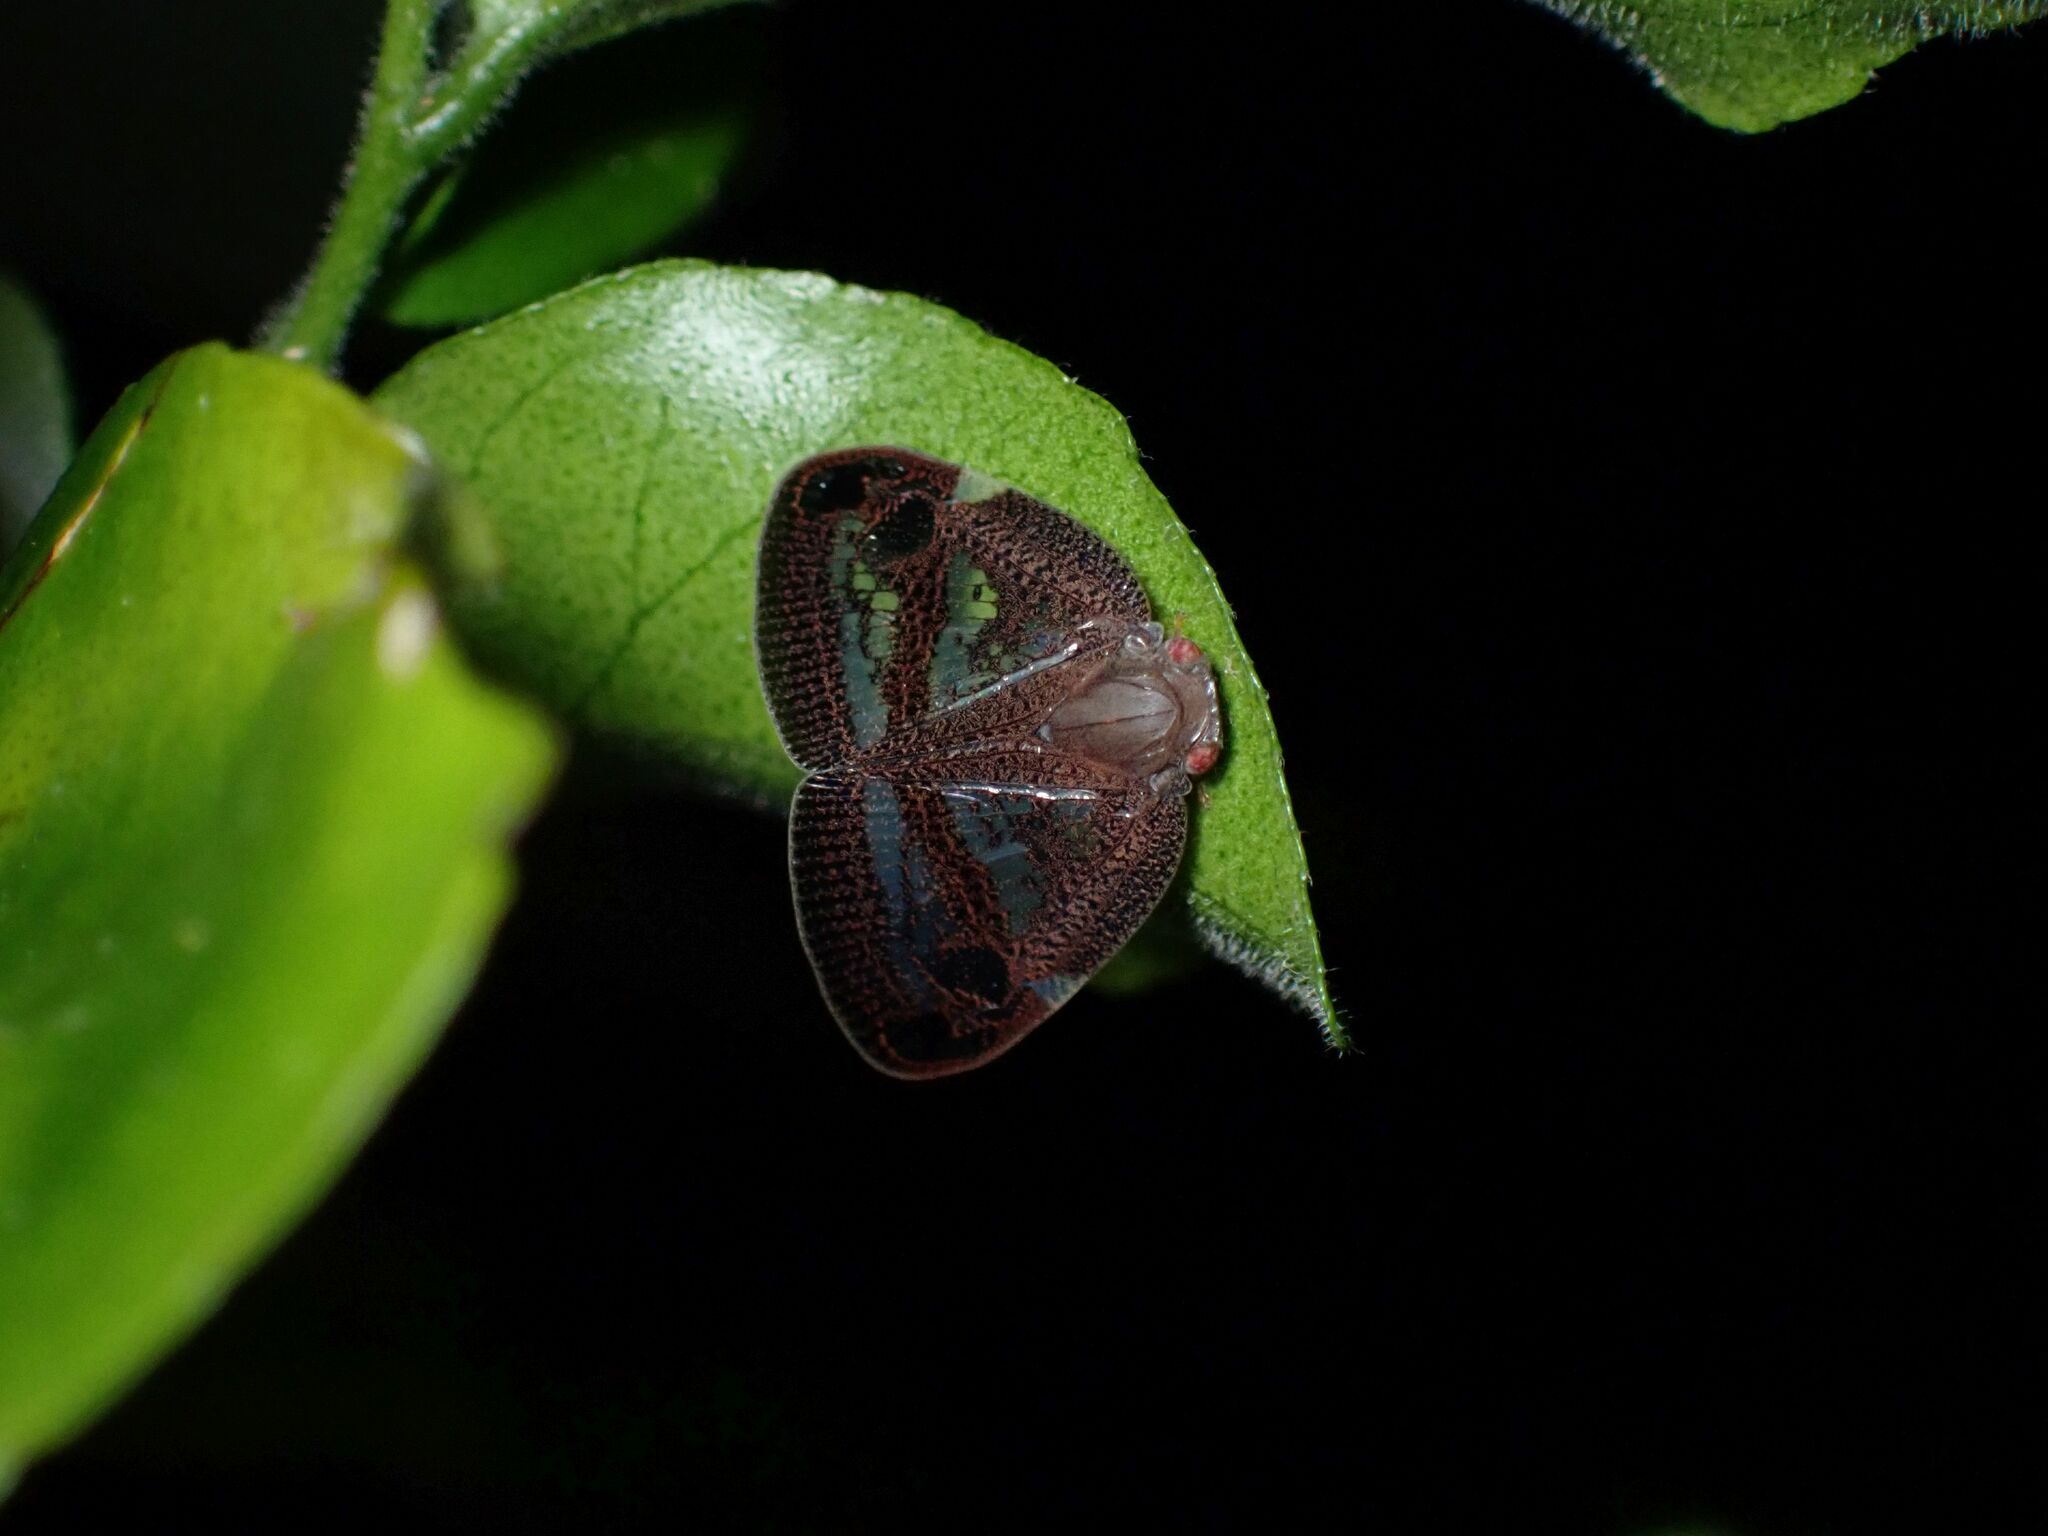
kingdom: Animalia
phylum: Arthropoda
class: Insecta
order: Hemiptera
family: Ricaniidae
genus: Parapiromis
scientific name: Parapiromis translucida
